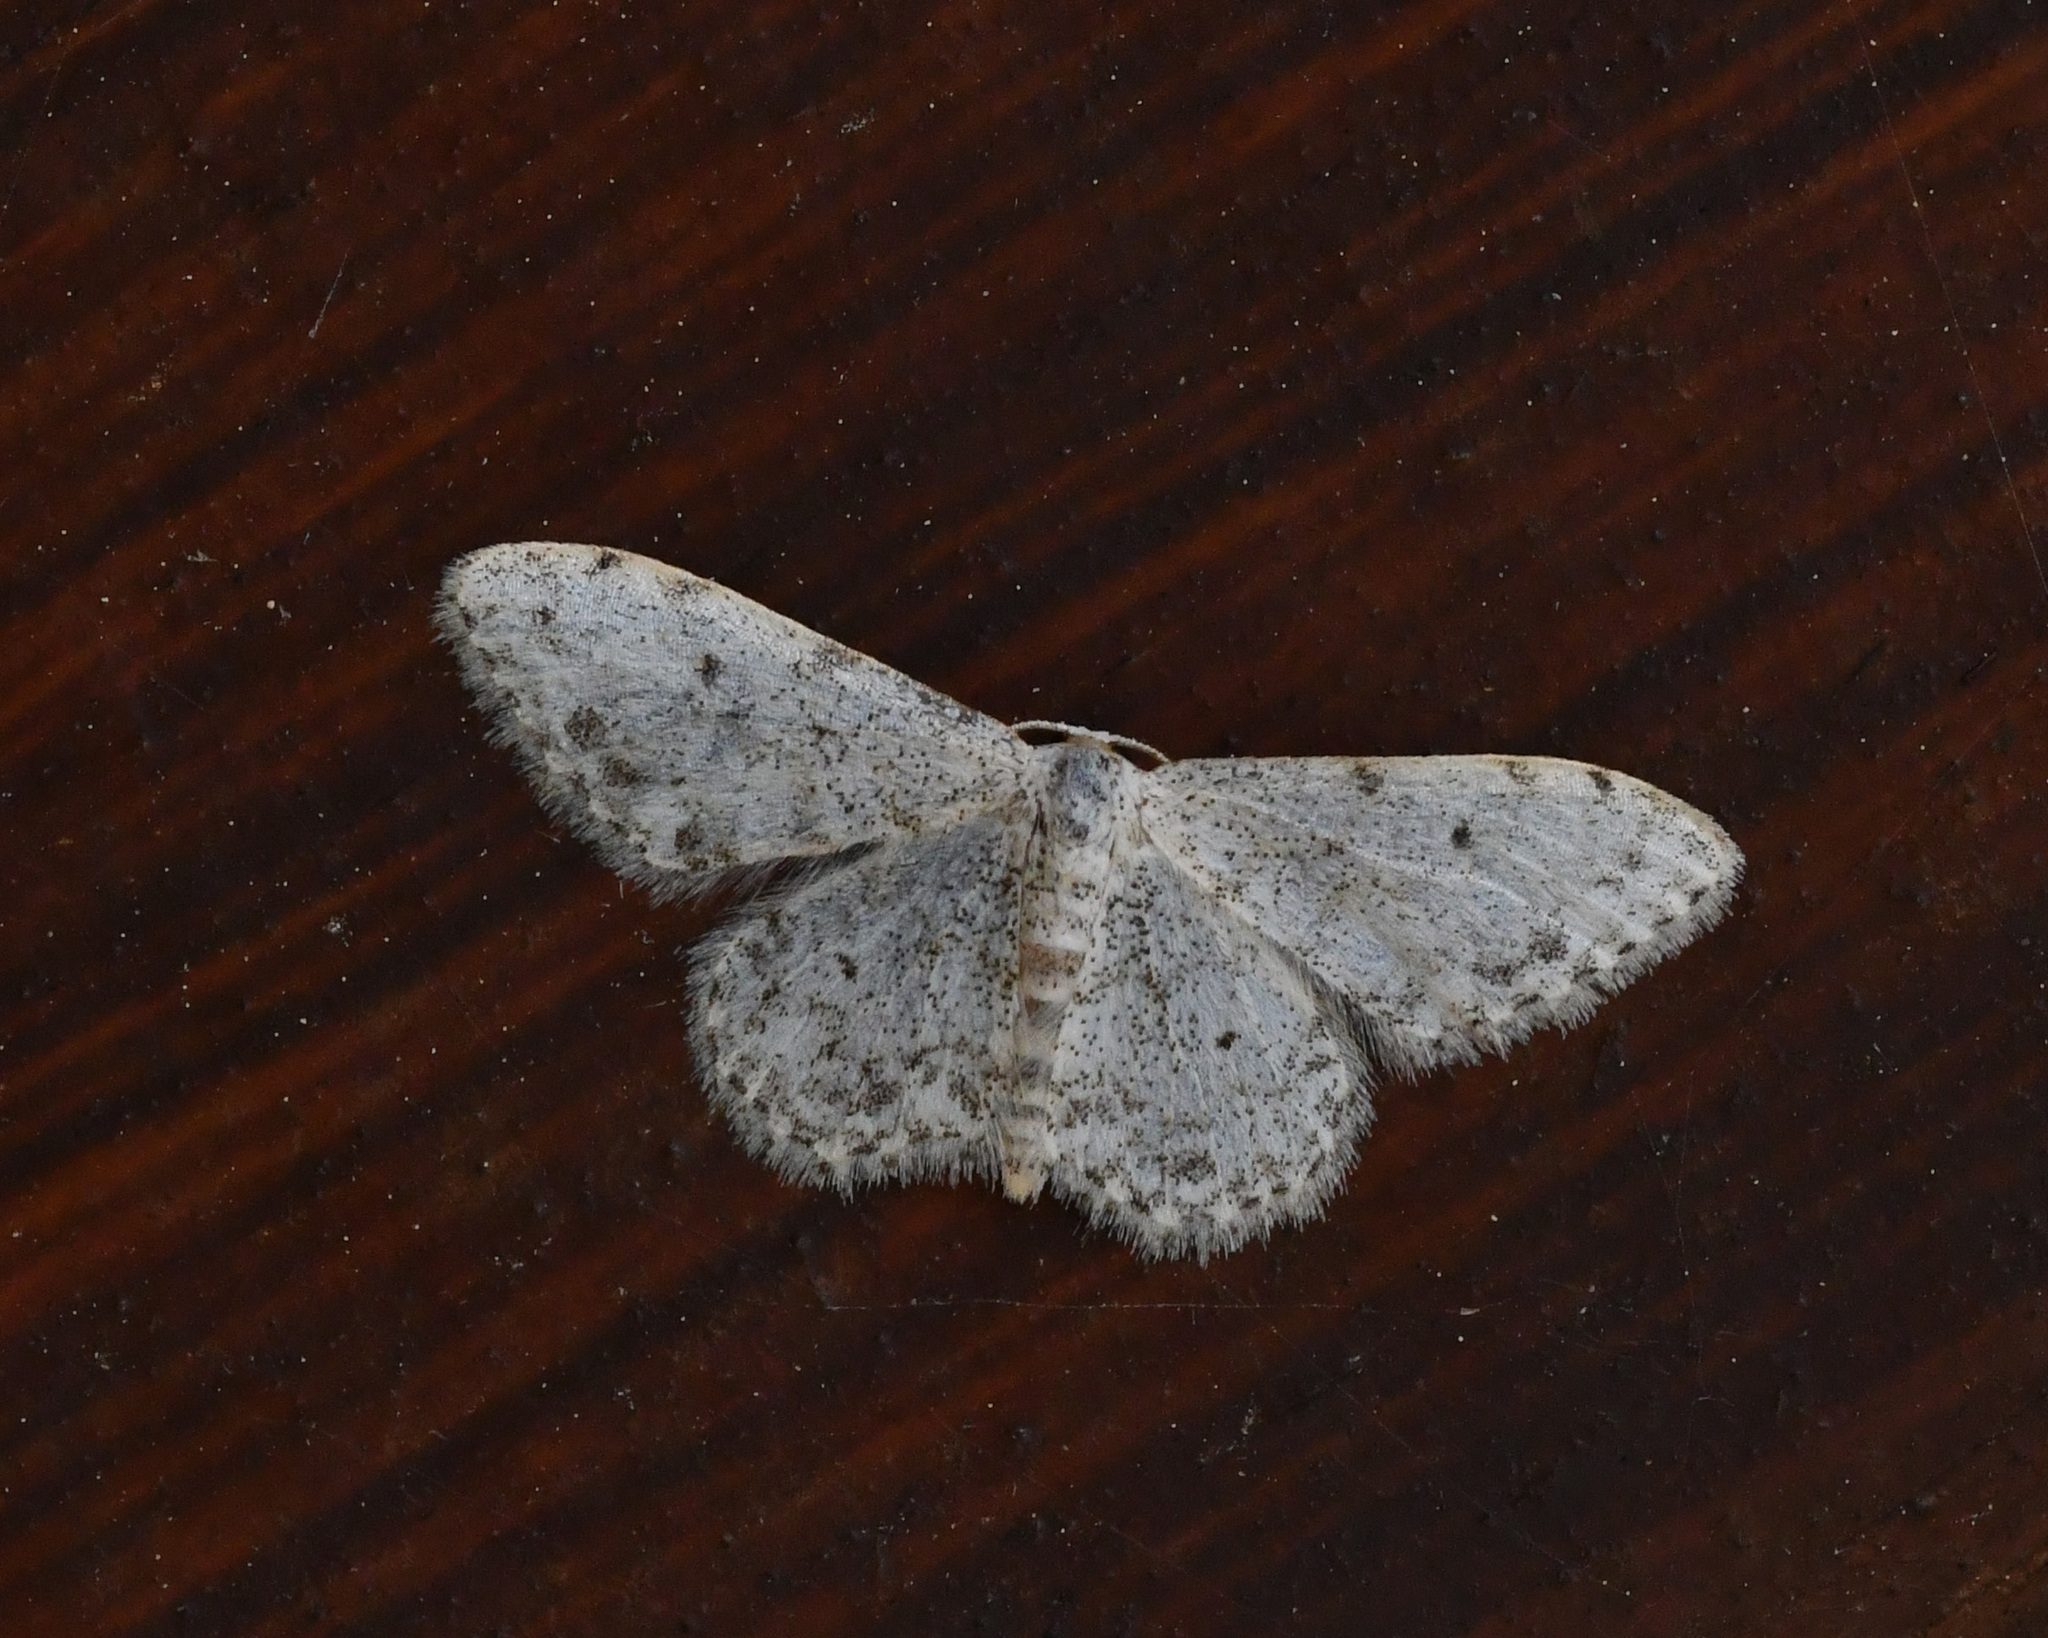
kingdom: Animalia
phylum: Arthropoda
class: Insecta
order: Lepidoptera
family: Geometridae
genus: Idaea
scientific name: Idaea camparia
